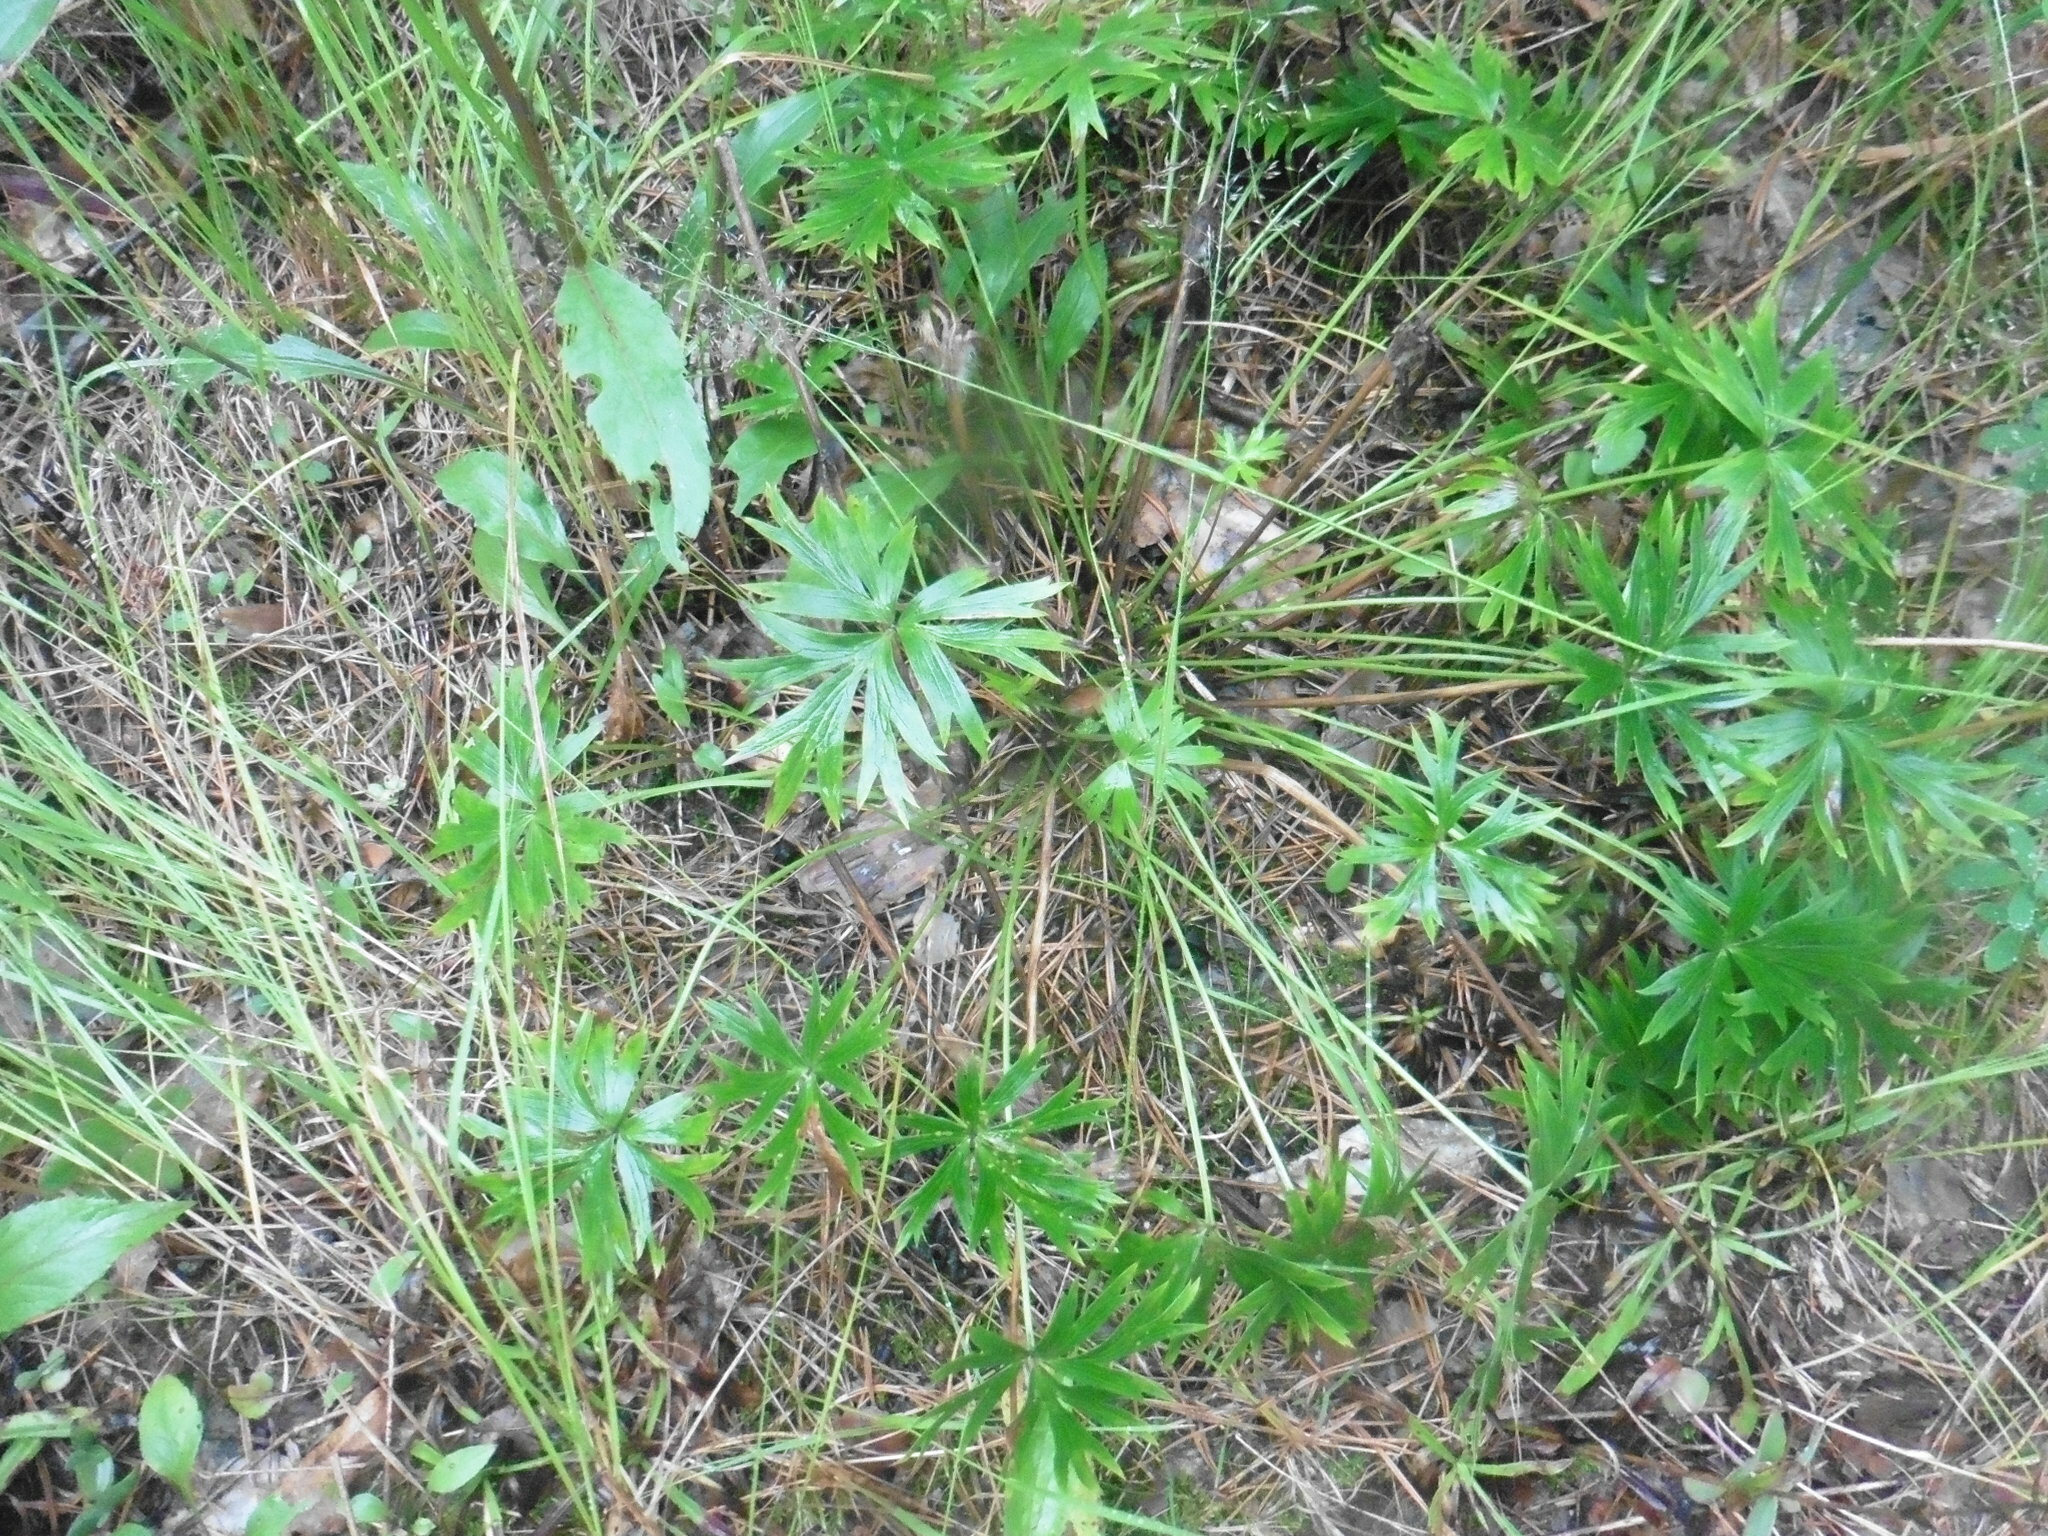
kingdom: Plantae
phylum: Tracheophyta
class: Magnoliopsida
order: Ranunculales
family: Ranunculaceae
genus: Pulsatilla
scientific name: Pulsatilla patens
